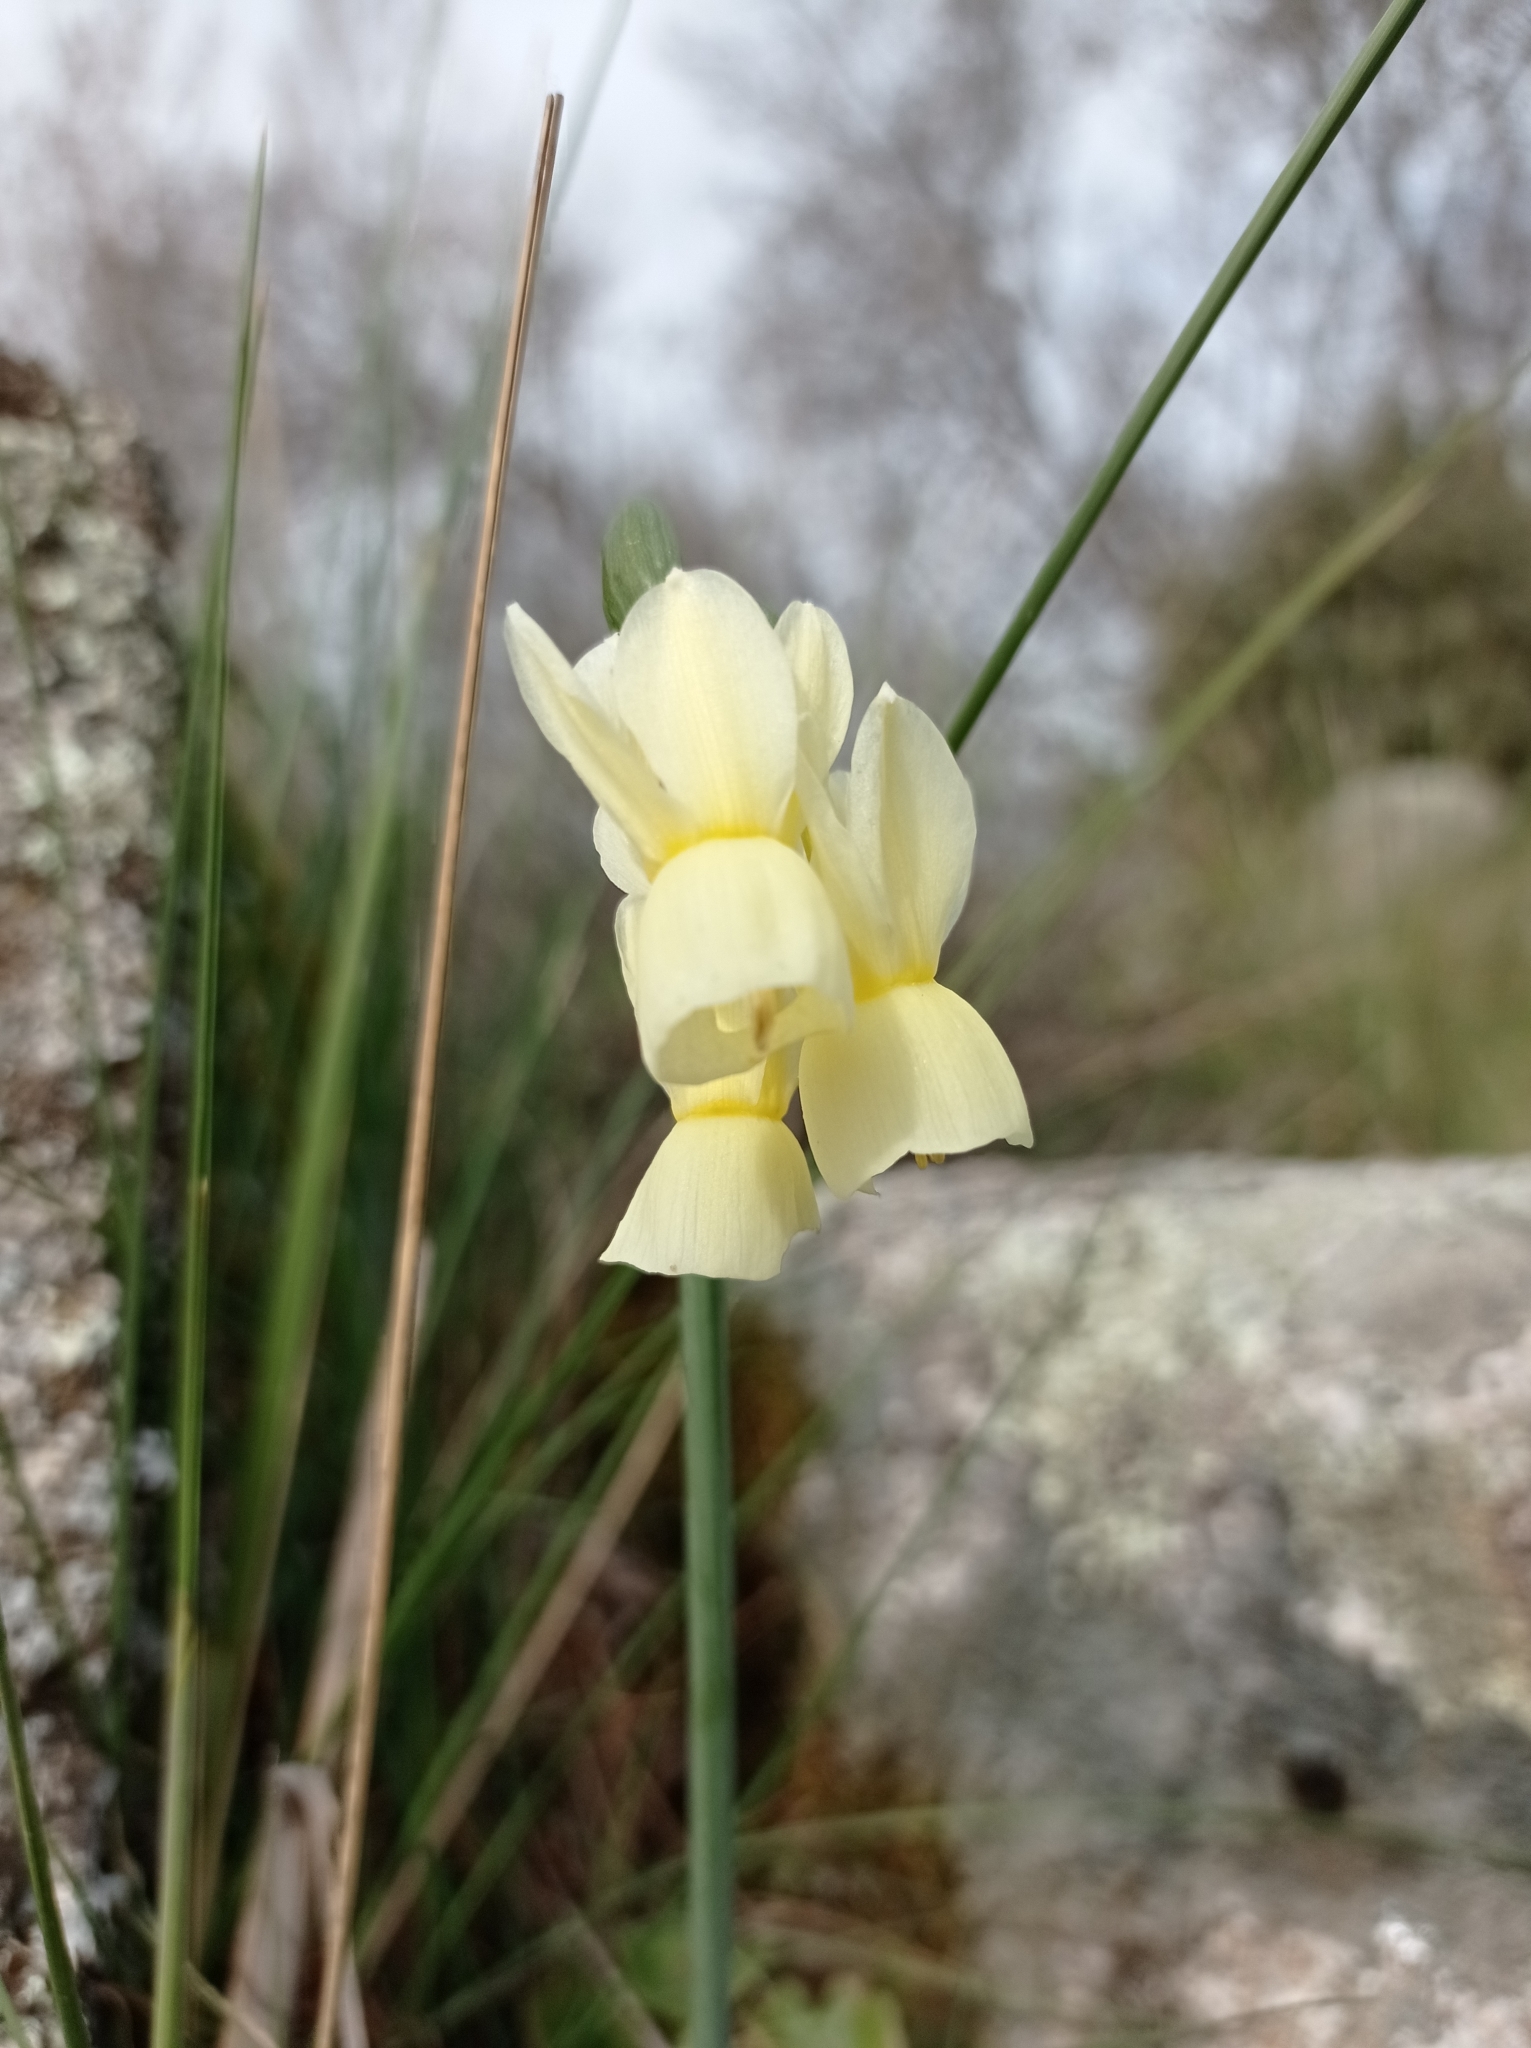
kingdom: Plantae
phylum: Tracheophyta
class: Liliopsida
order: Asparagales
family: Amaryllidaceae
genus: Narcissus
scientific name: Narcissus triandrus
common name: Angel's-tears
